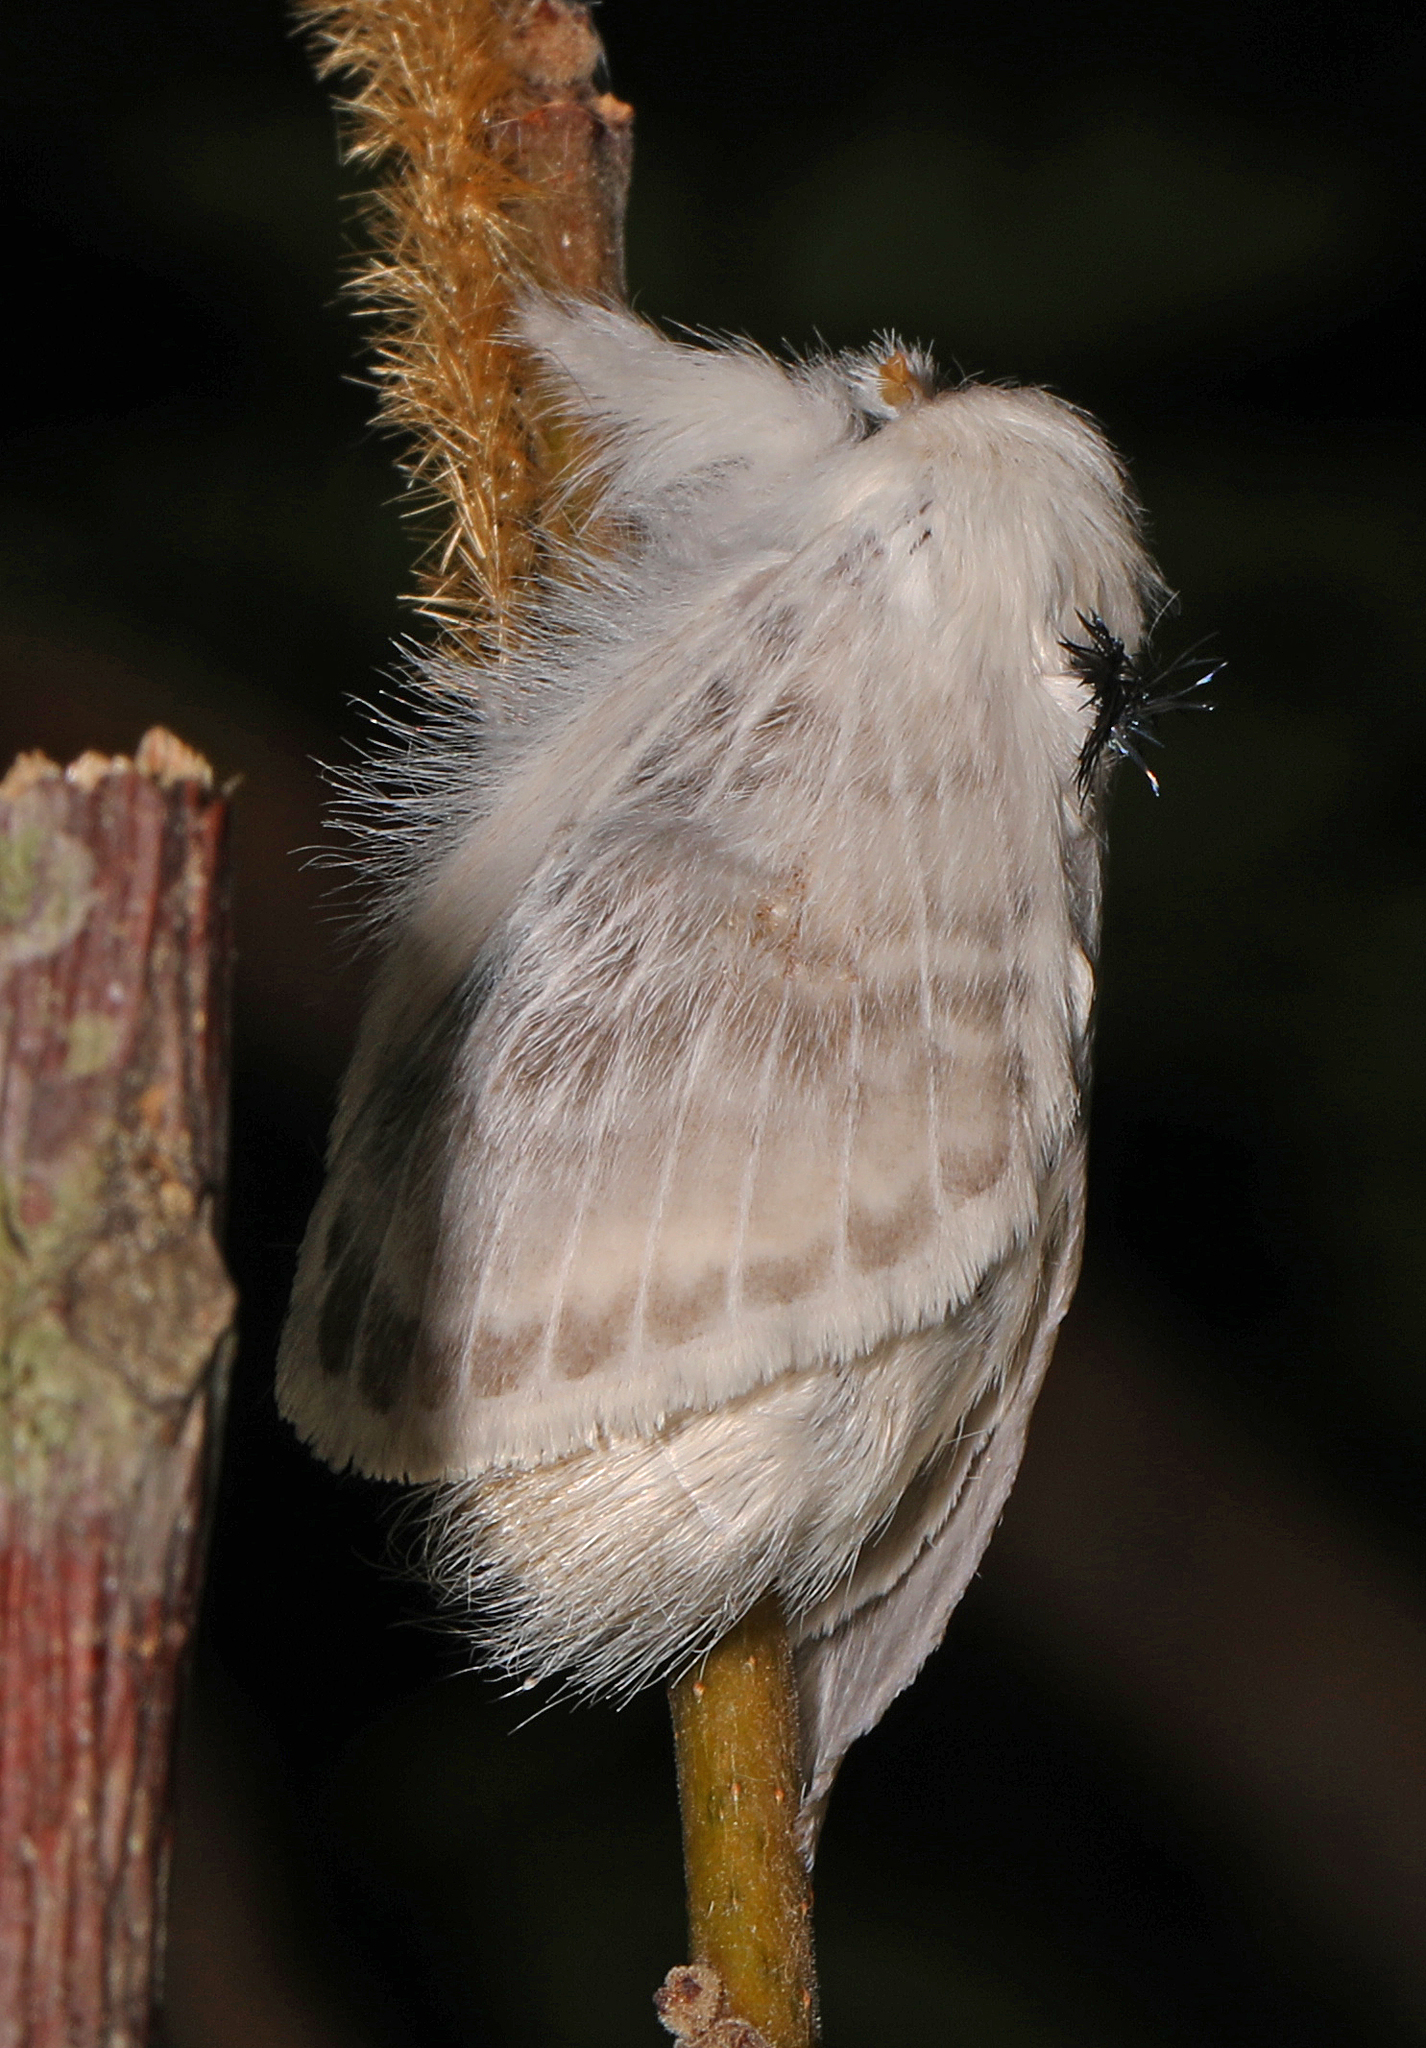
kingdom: Animalia
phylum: Arthropoda
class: Insecta
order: Lepidoptera
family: Lasiocampidae
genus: Apotolype
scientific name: Apotolype blanchardi
